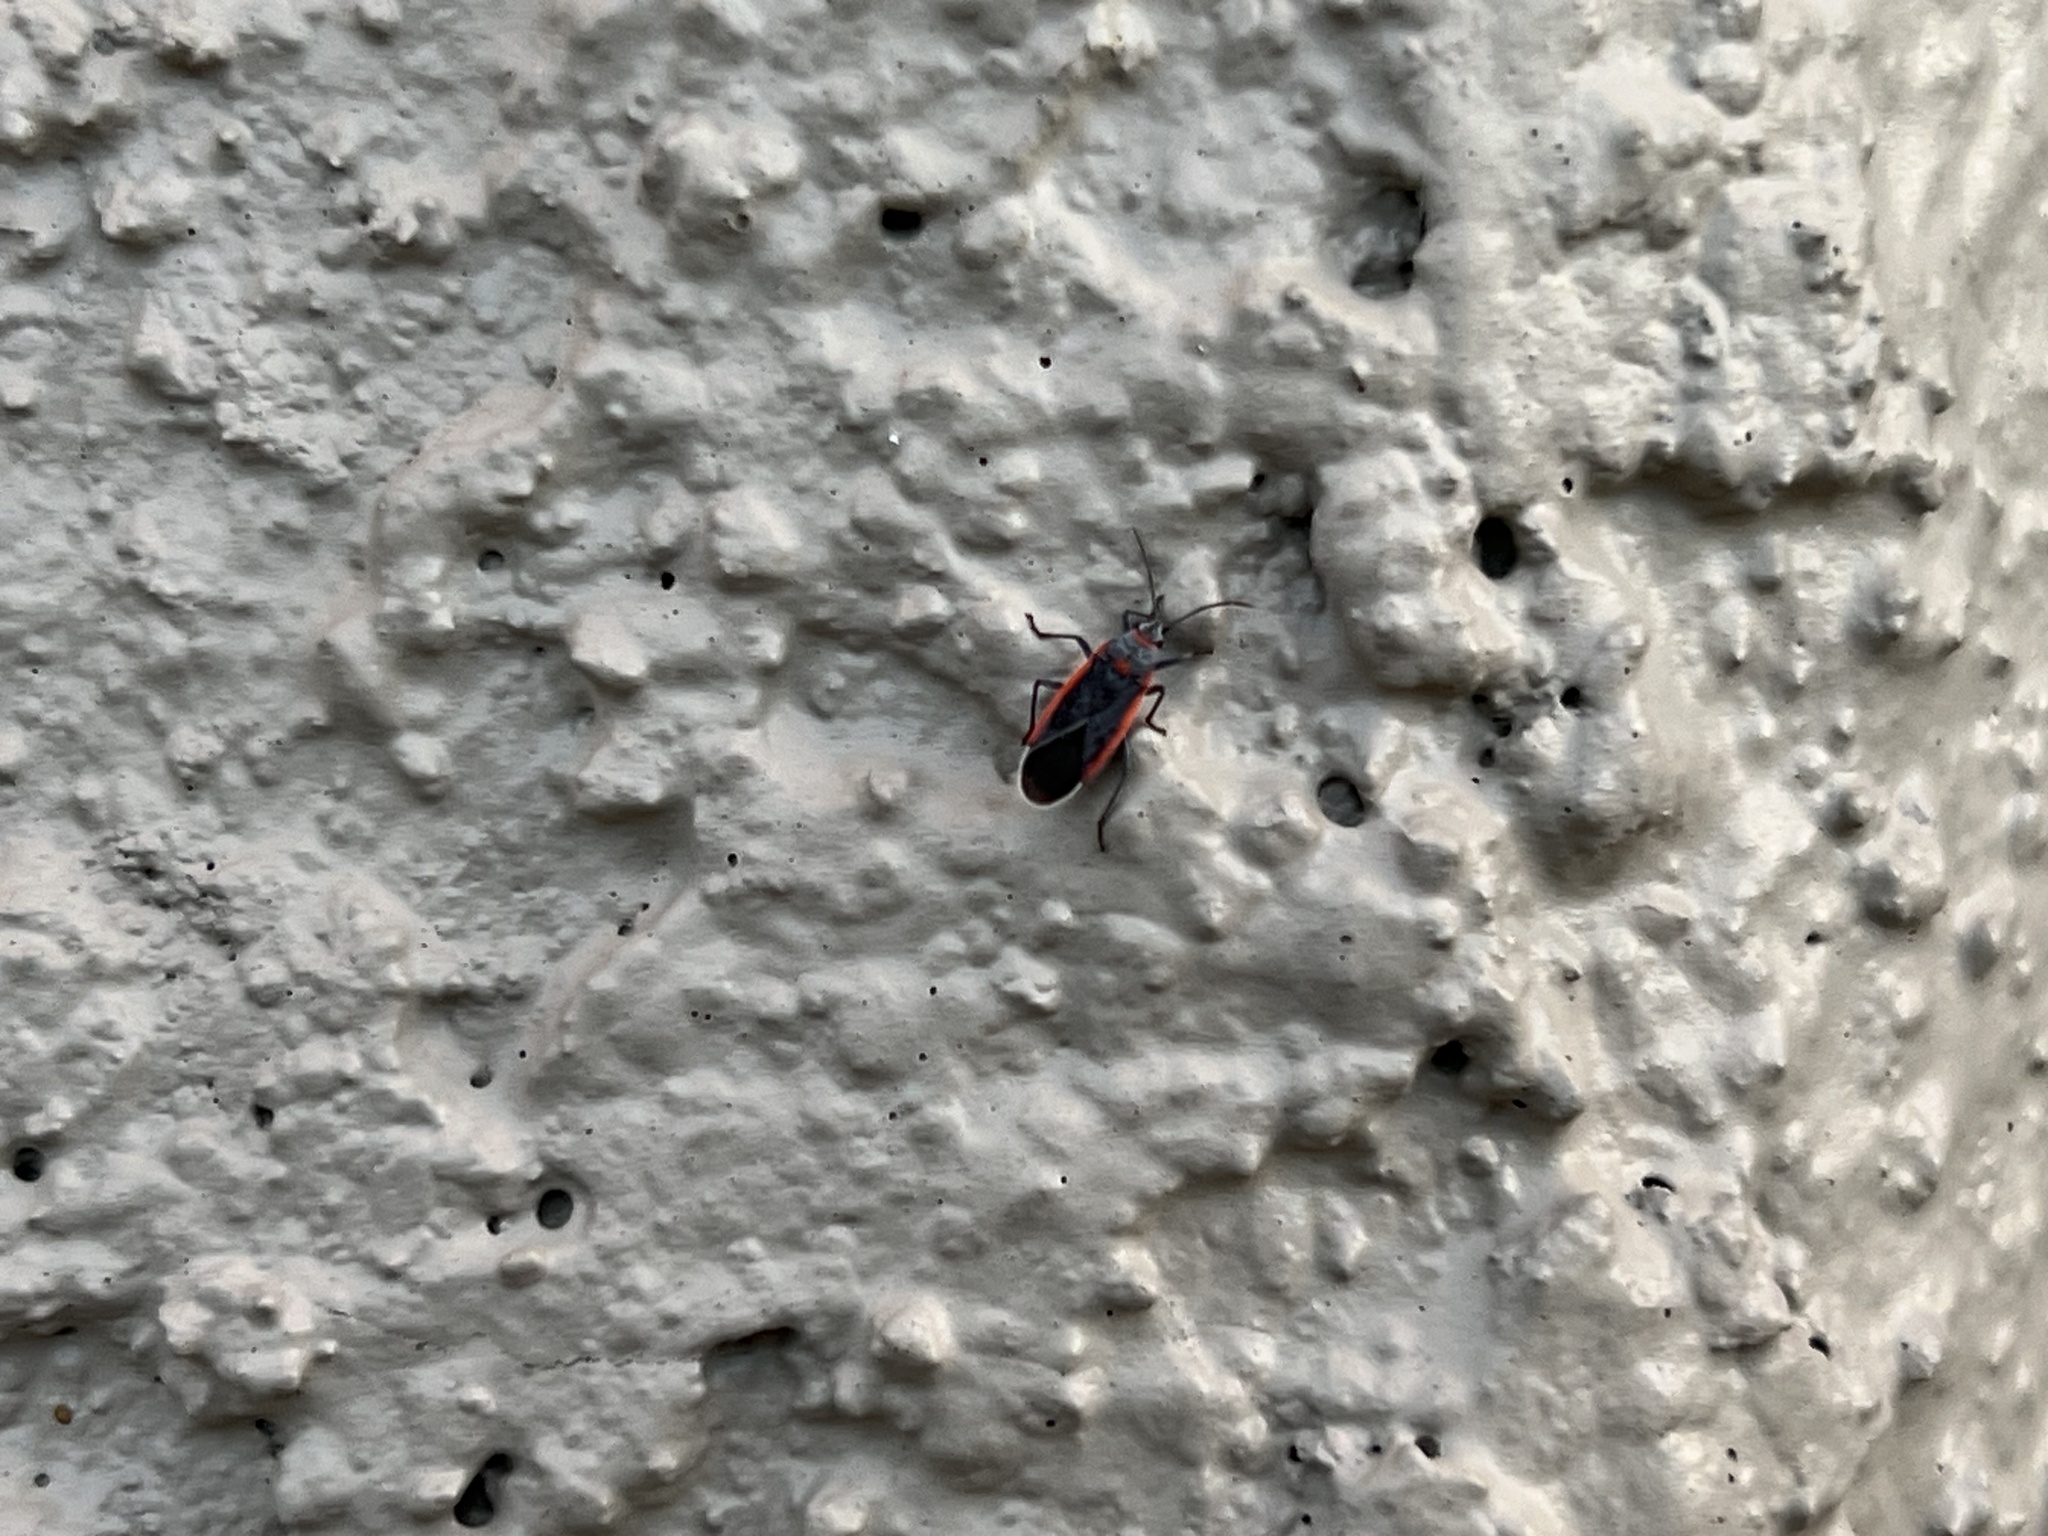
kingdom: Animalia
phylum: Arthropoda
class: Insecta
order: Hemiptera
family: Lygaeidae
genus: Melacoryphus
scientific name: Melacoryphus lateralis
